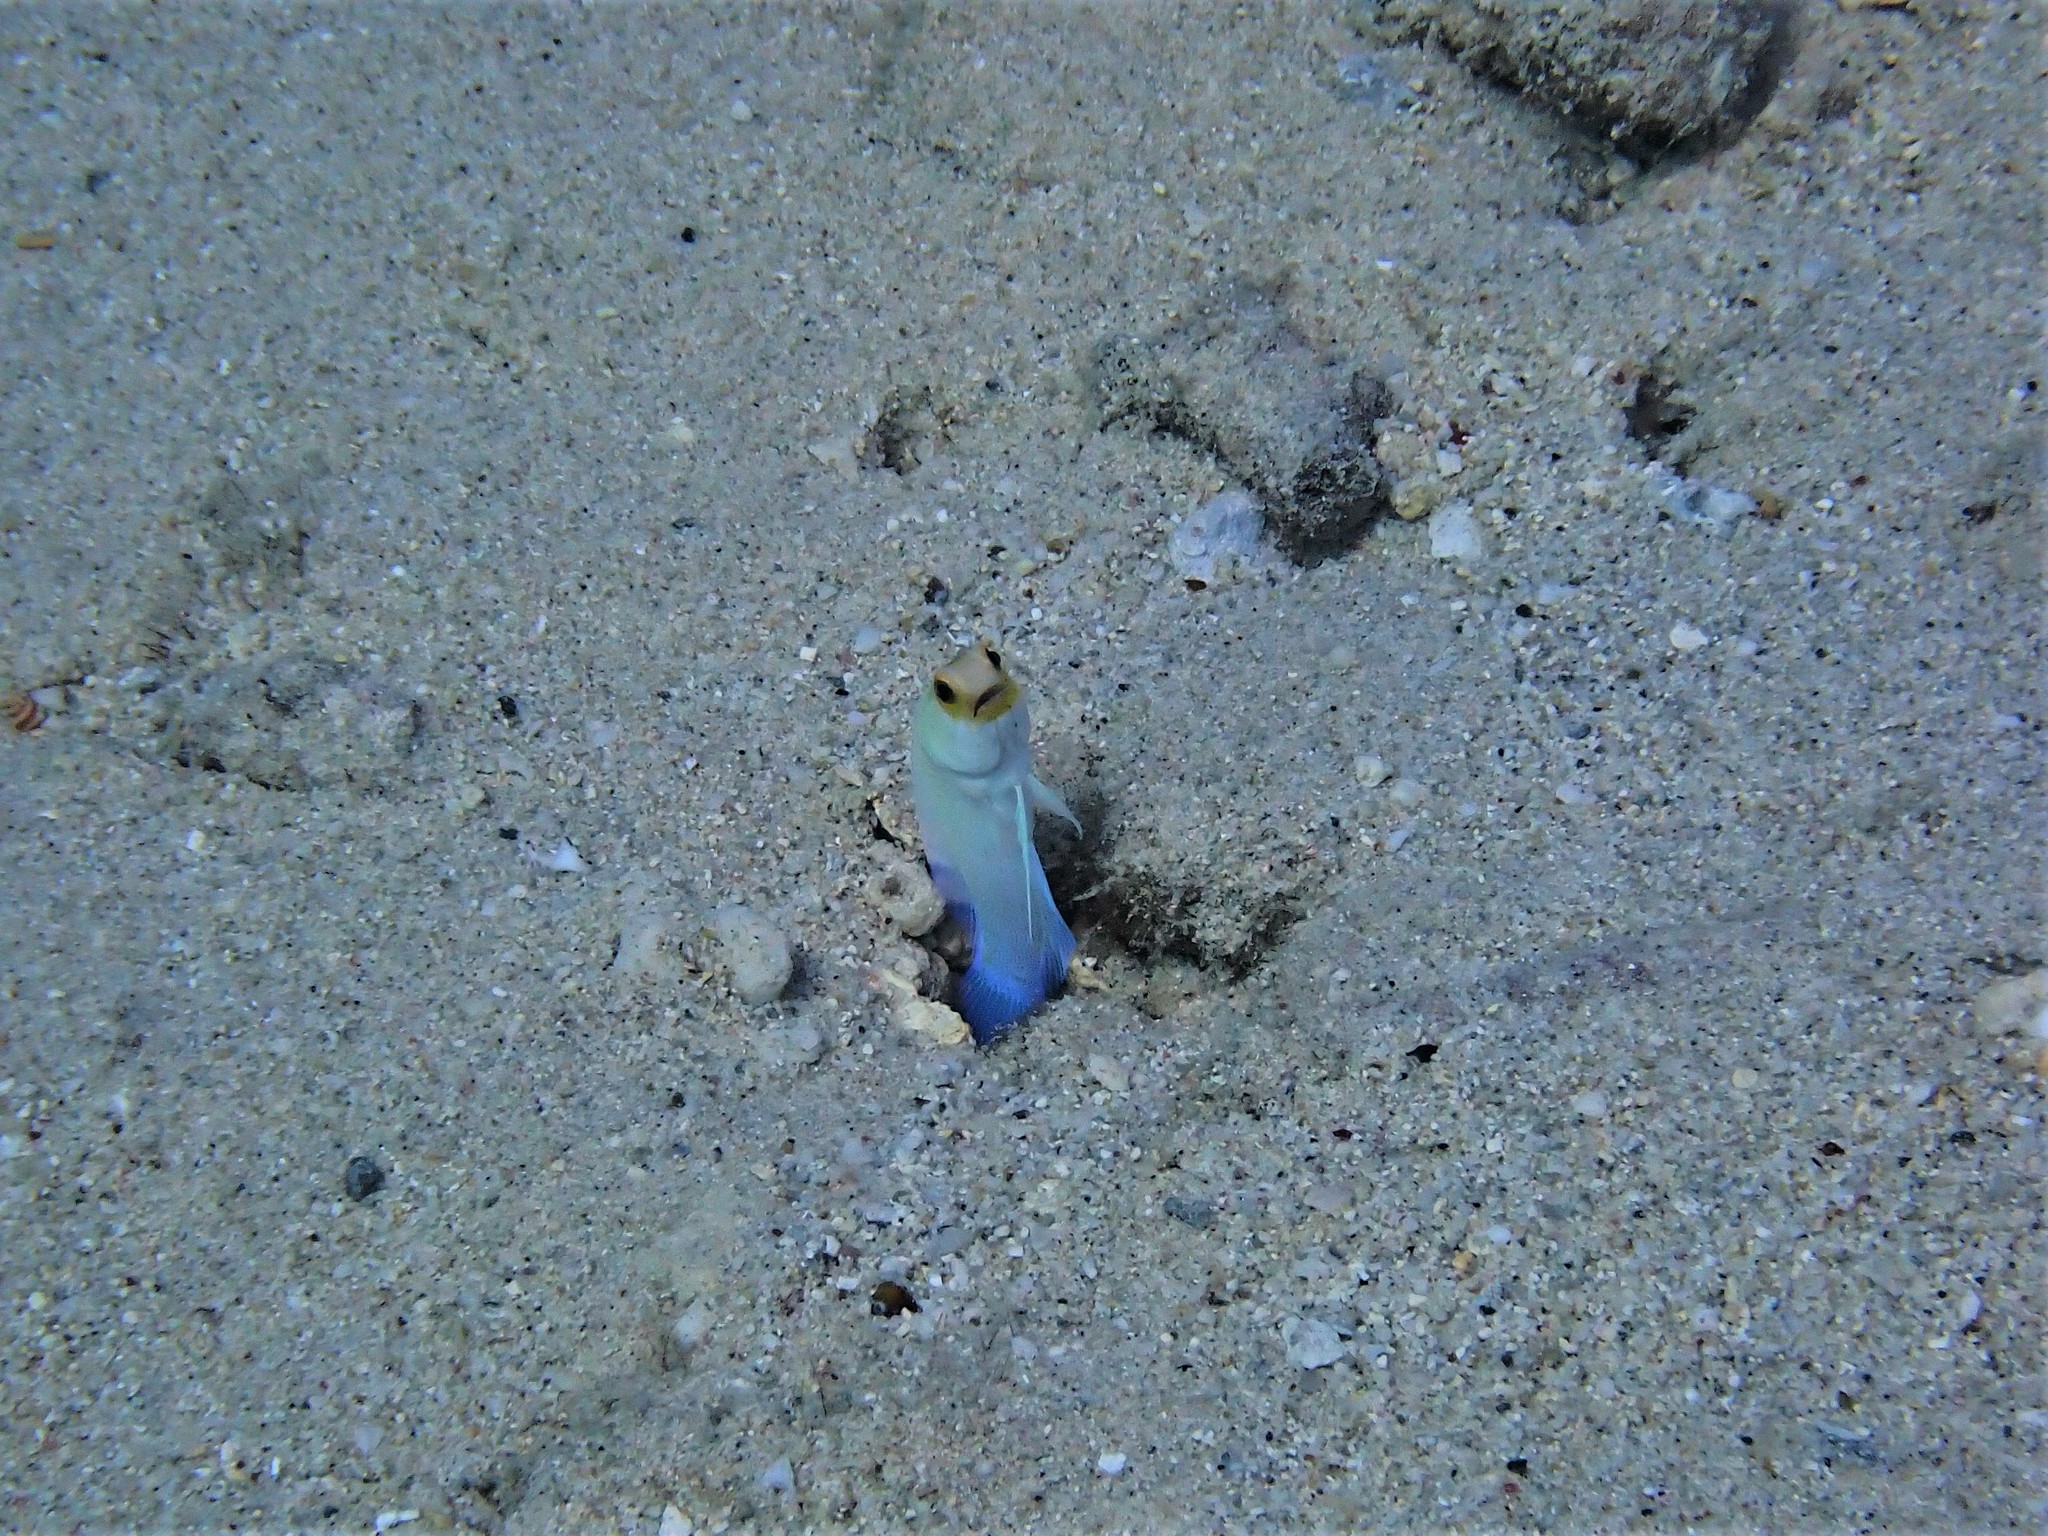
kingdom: Animalia
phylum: Chordata
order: Perciformes
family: Opistognathidae
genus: Opistognathus
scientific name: Opistognathus aurifrons
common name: Yellowhead jawfish
